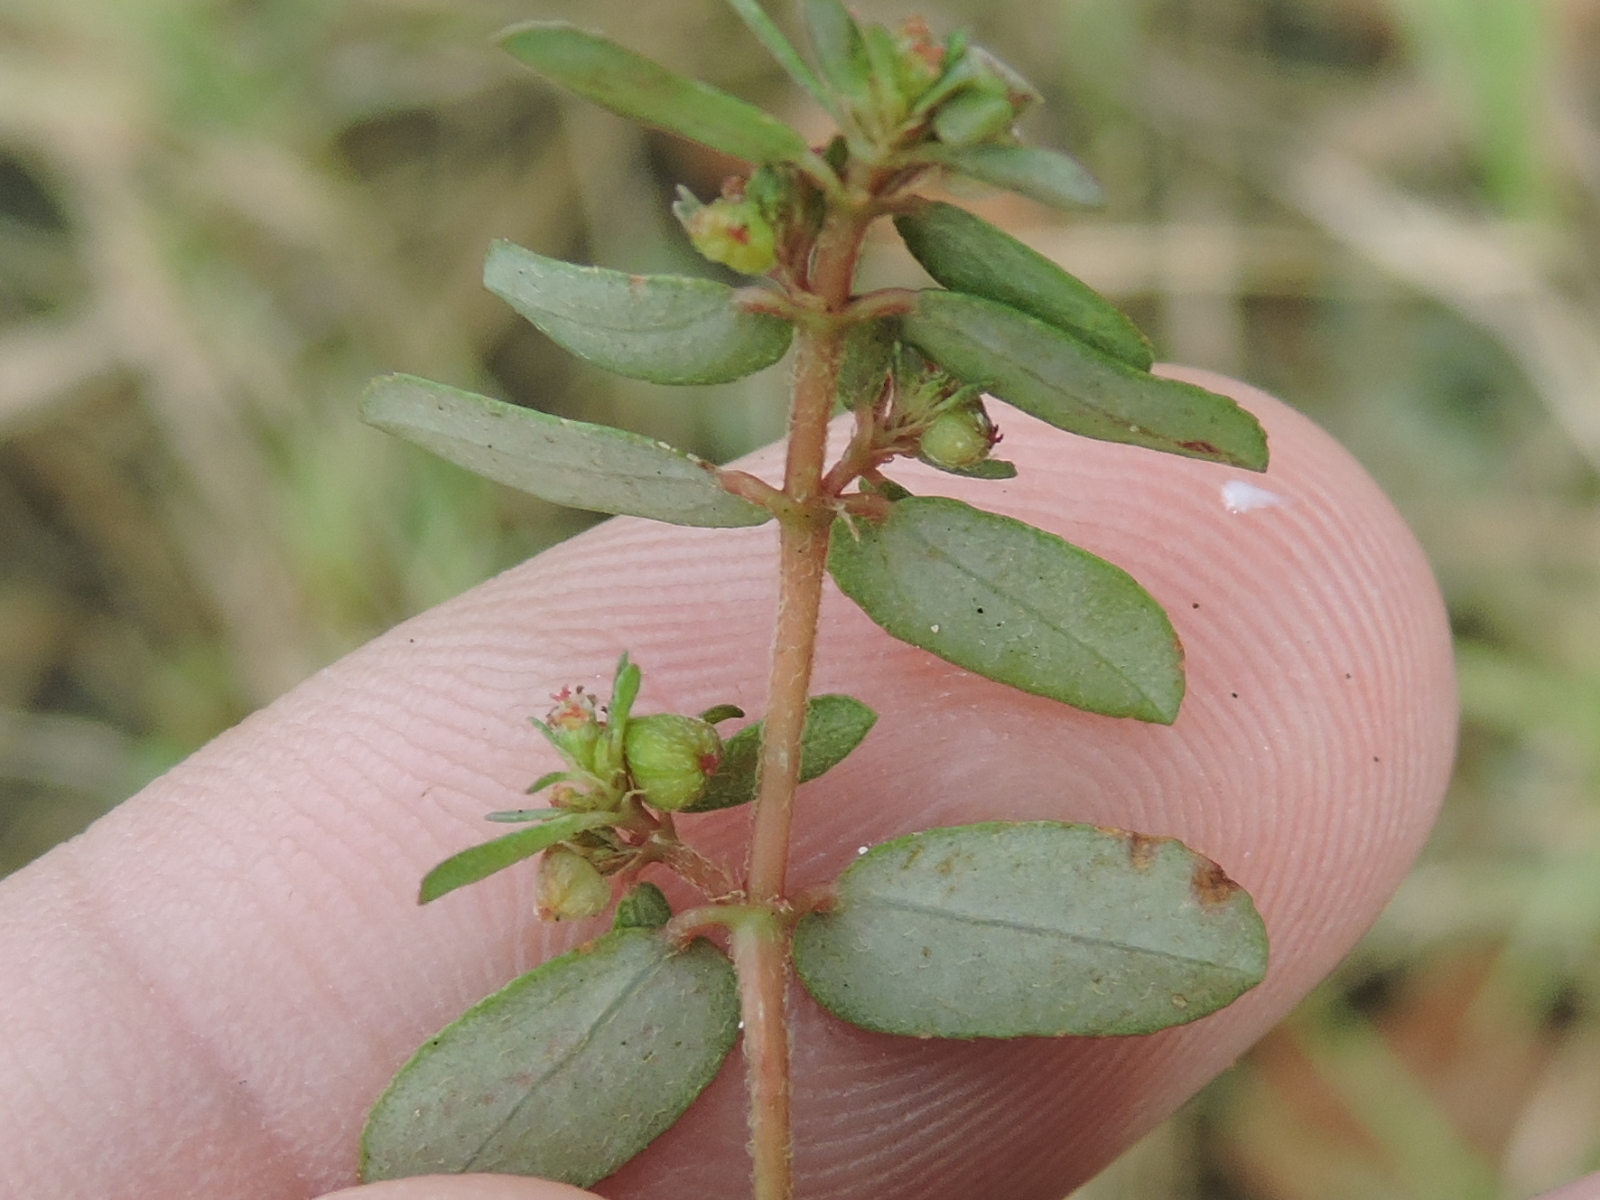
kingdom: Plantae
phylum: Tracheophyta
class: Magnoliopsida
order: Malpighiales
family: Euphorbiaceae
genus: Euphorbia
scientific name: Euphorbia maculata
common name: Spotted spurge
